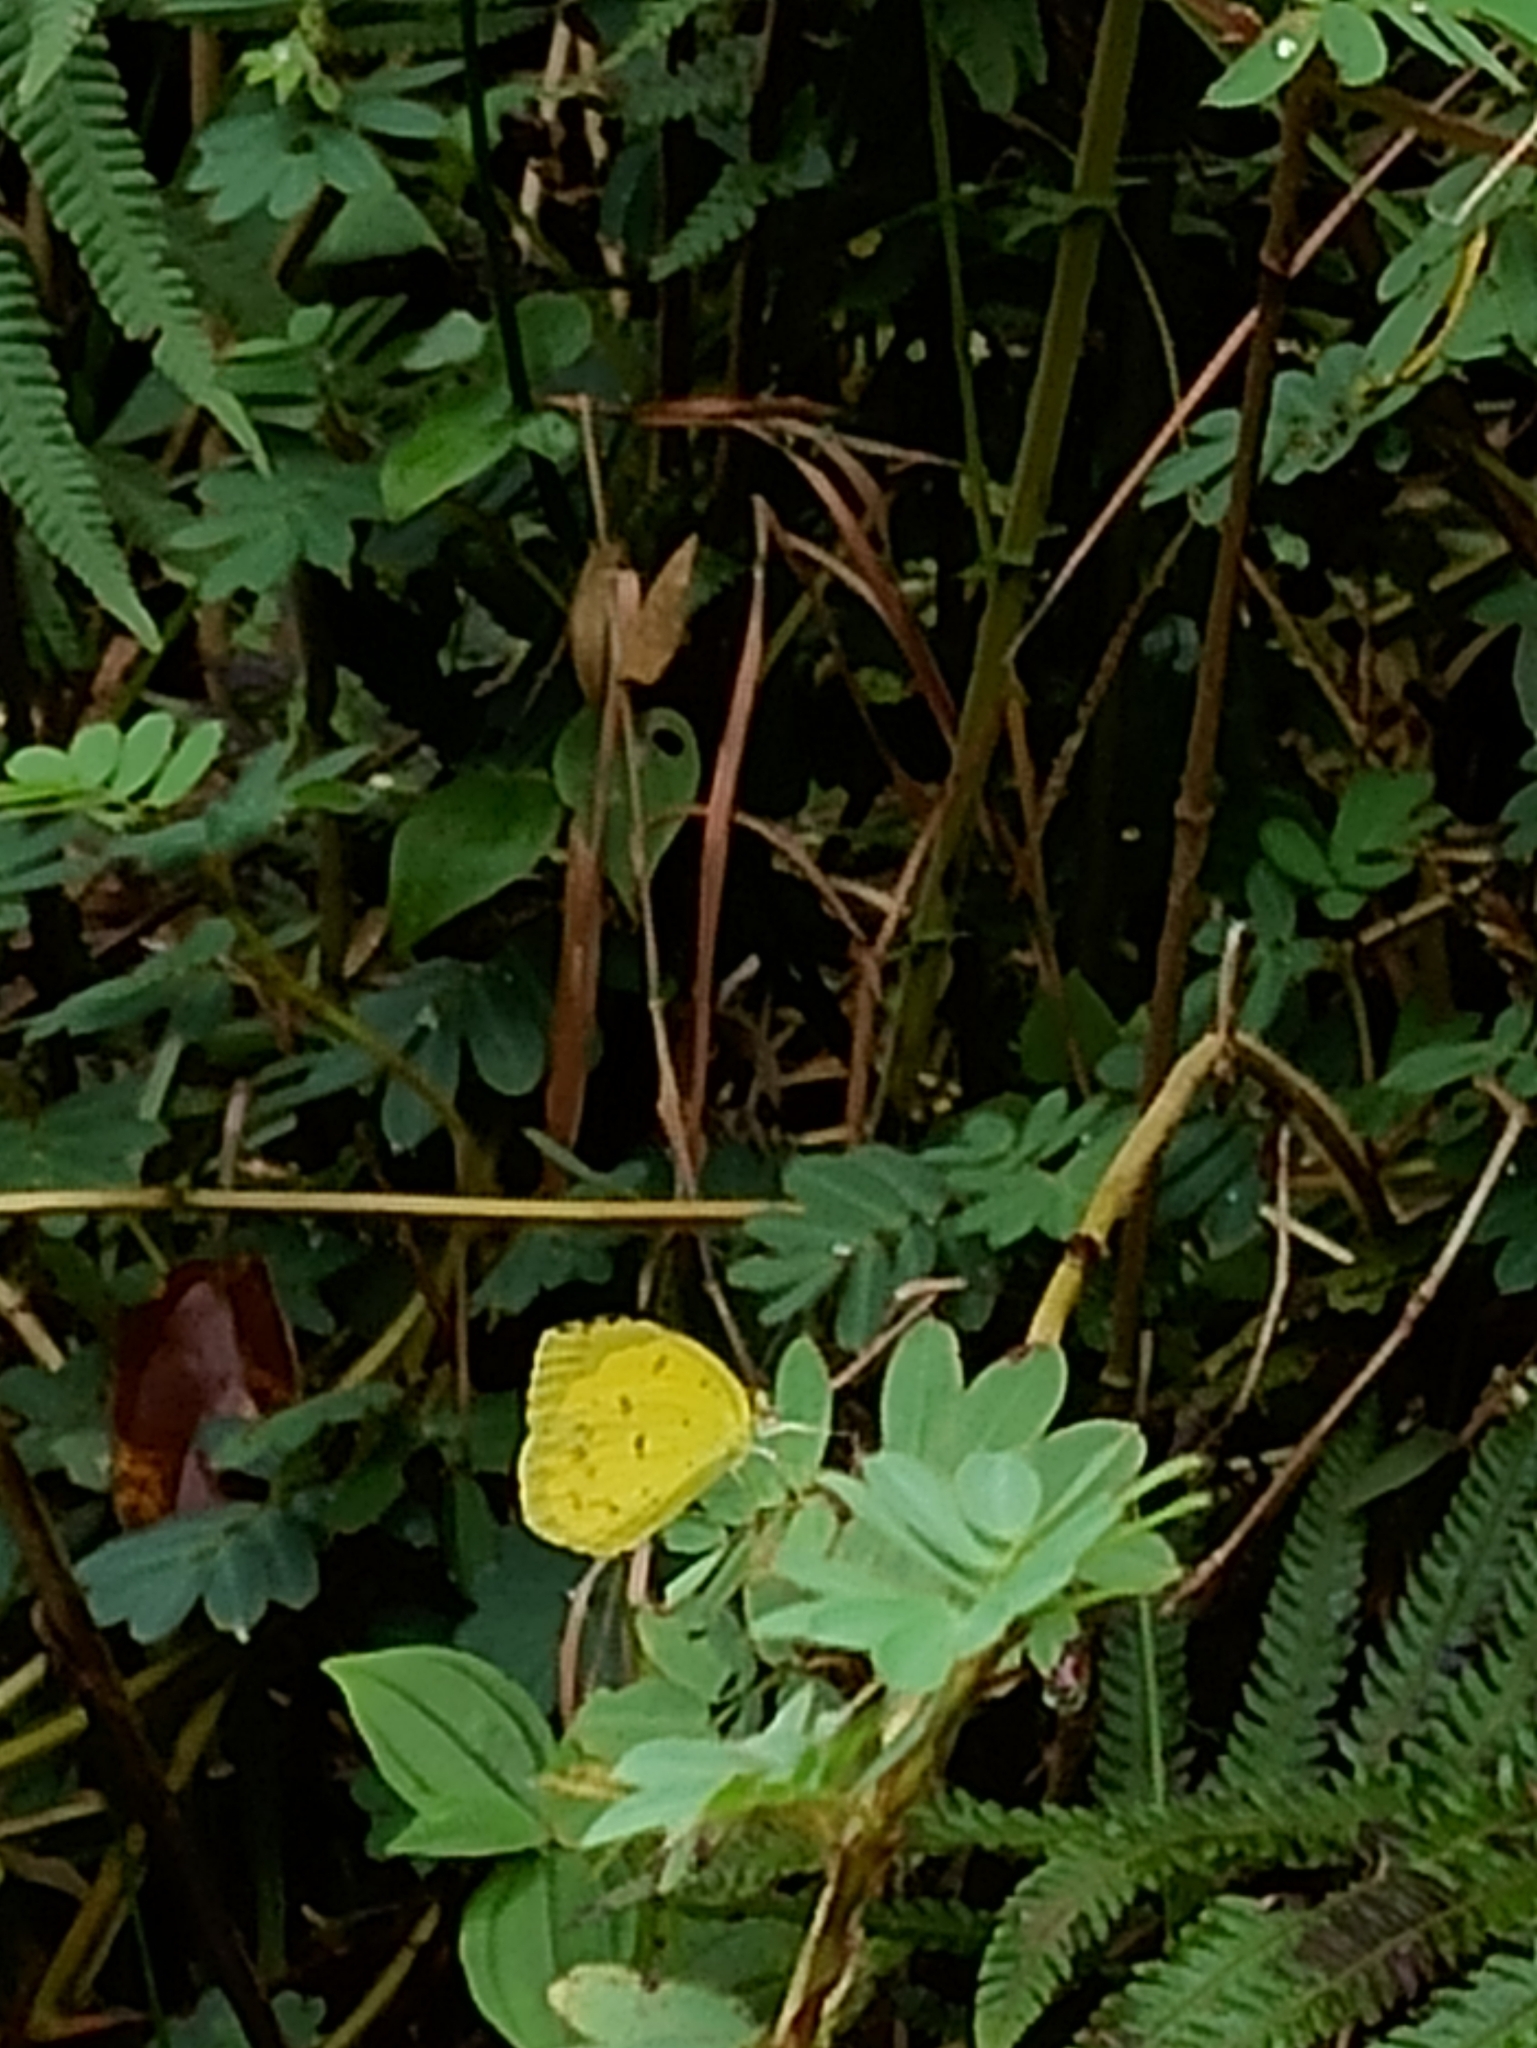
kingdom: Animalia
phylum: Arthropoda
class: Insecta
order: Lepidoptera
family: Pieridae
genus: Eurema
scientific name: Eurema hecabe
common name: Pale grass yellow
